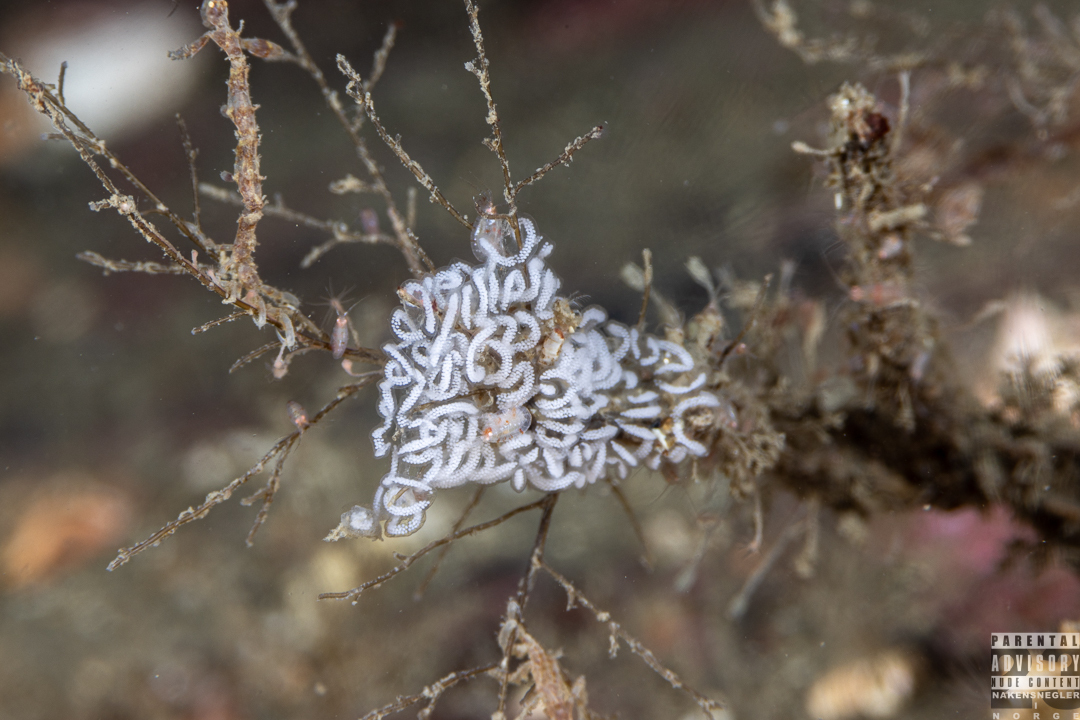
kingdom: Animalia
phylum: Mollusca
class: Gastropoda
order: Nudibranchia
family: Coryphellidae
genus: Coryphella
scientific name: Coryphella nobilis
